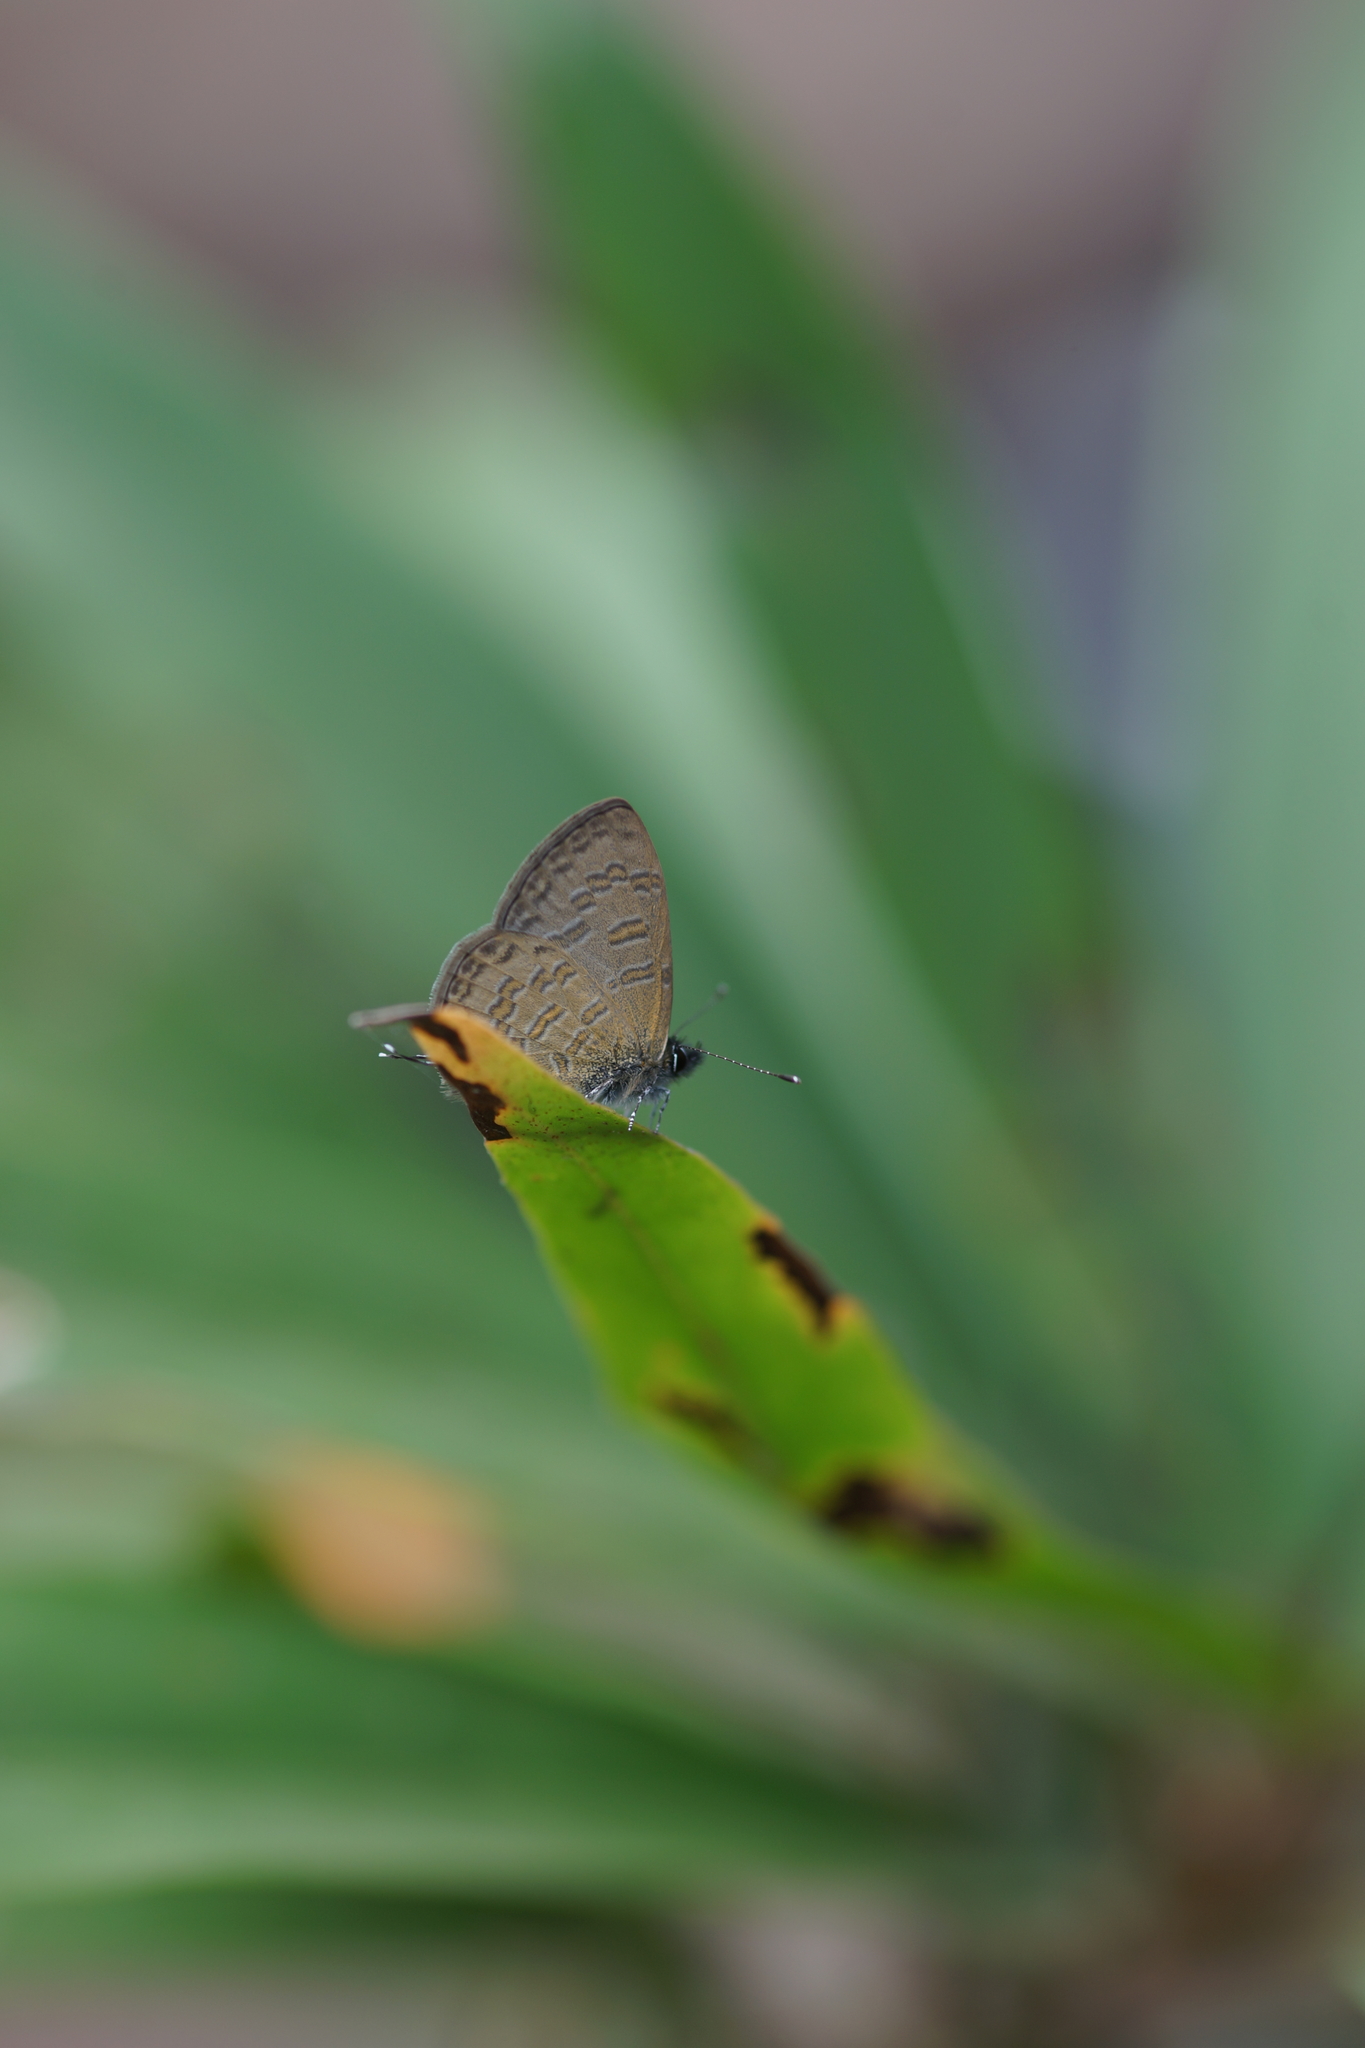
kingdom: Animalia
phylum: Arthropoda
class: Insecta
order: Lepidoptera
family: Lycaenidae
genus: Prosotas
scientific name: Prosotas nora
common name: Common line blue
